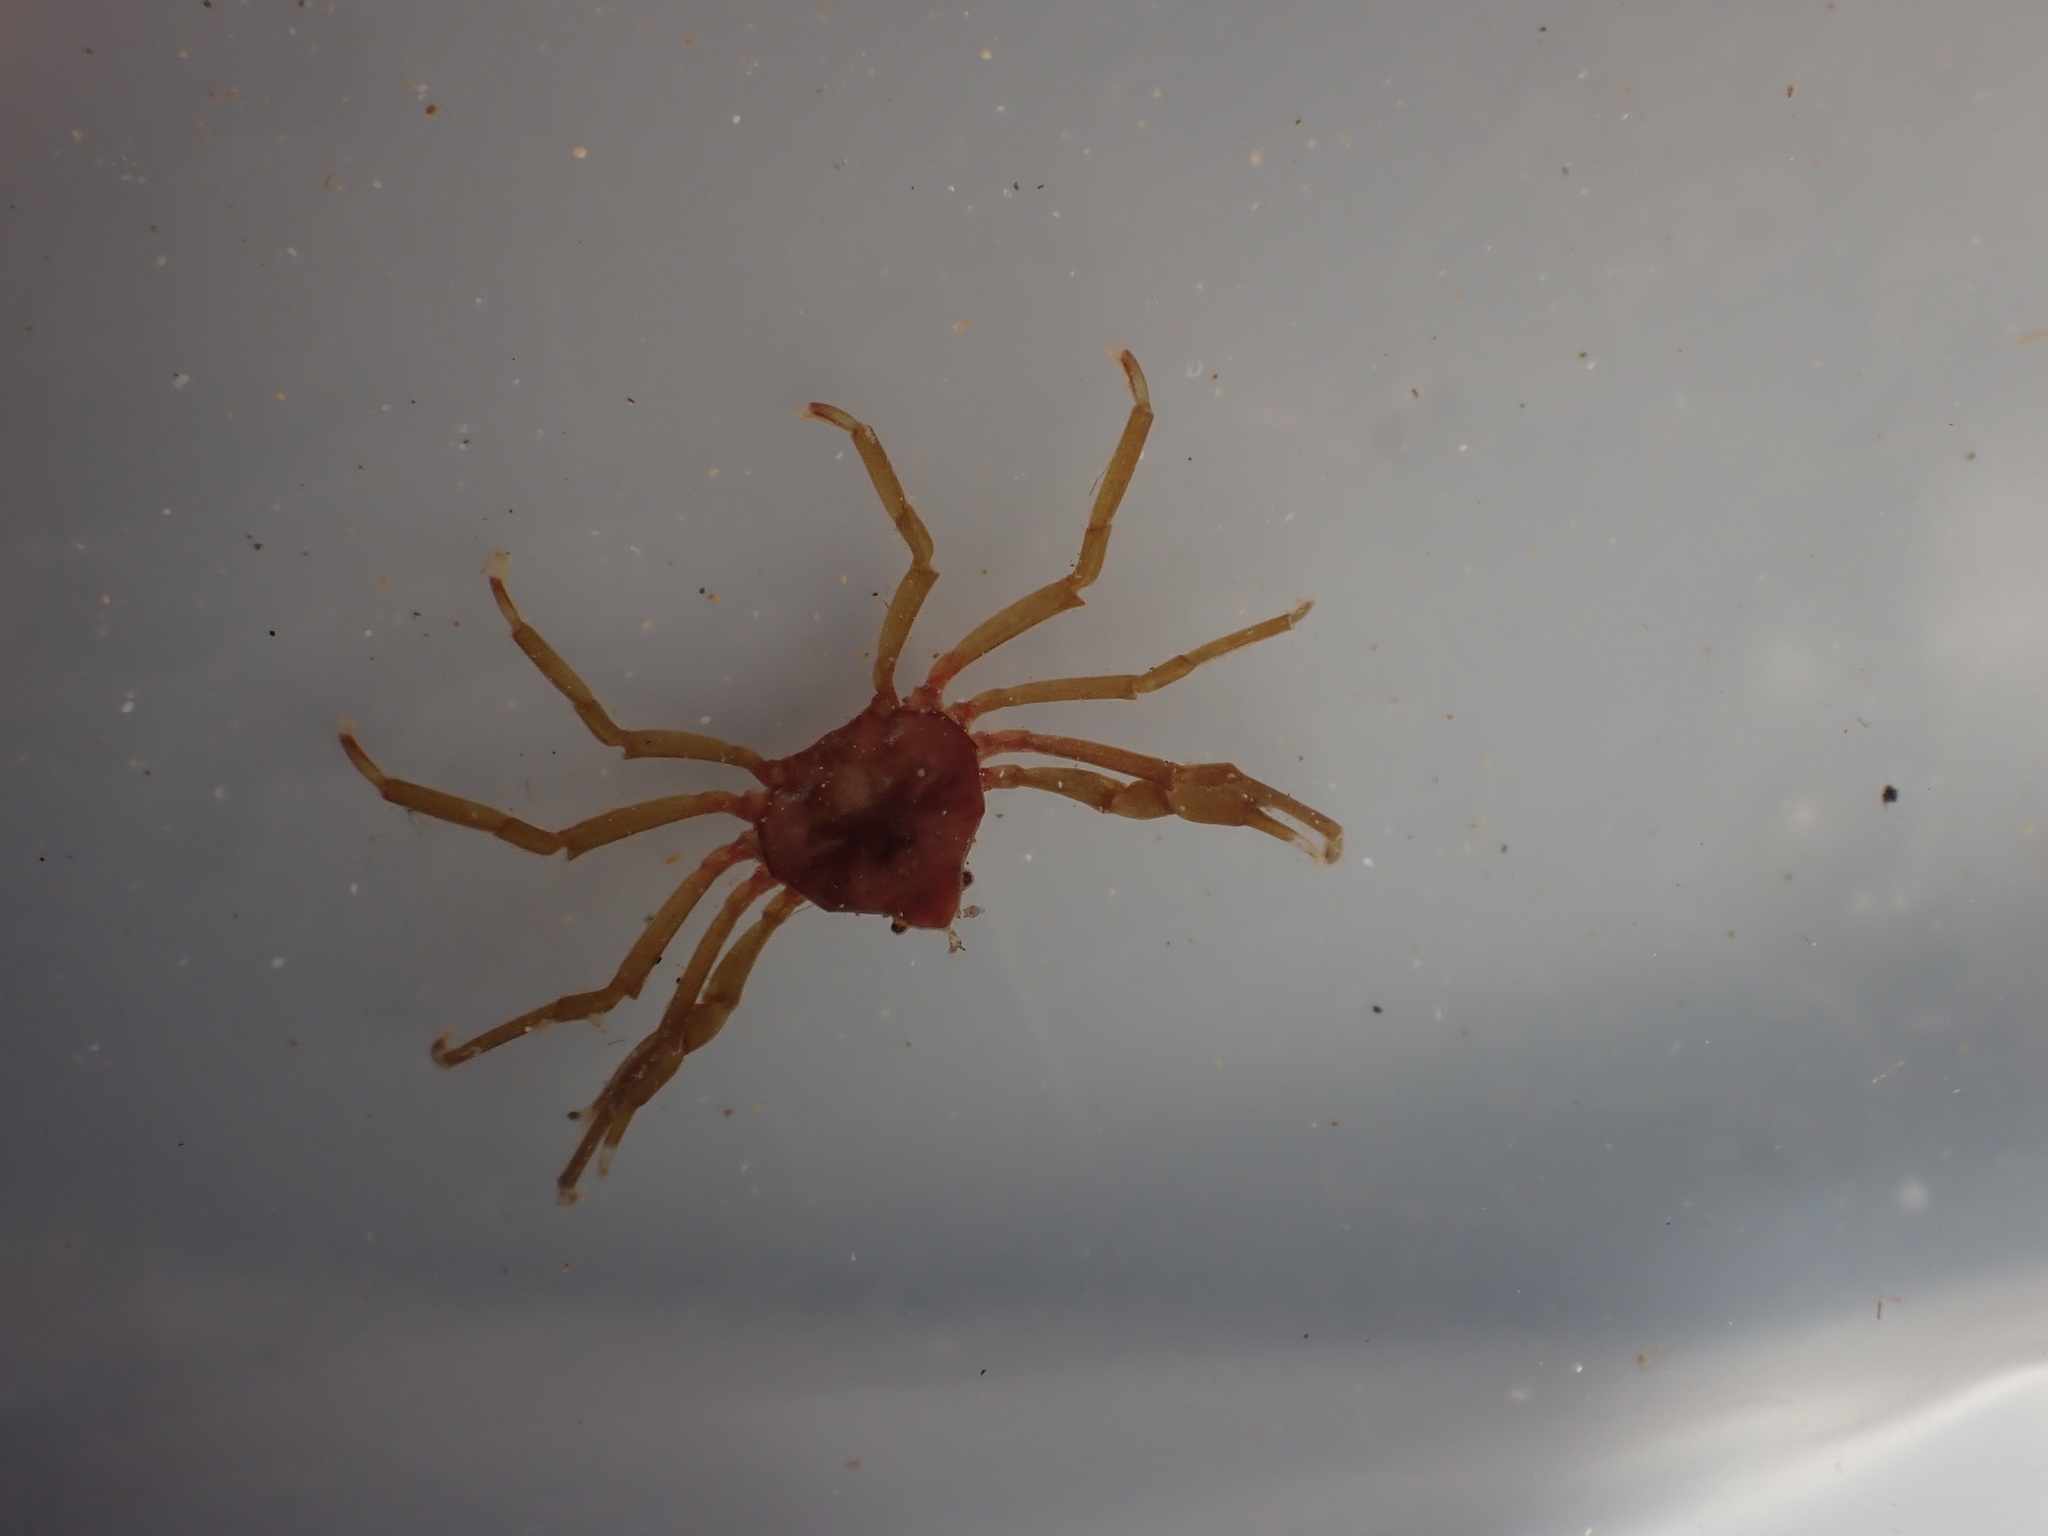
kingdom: Animalia
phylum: Arthropoda
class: Malacostraca
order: Decapoda
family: Hymenosomatidae
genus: Elamena
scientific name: Elamena producta
